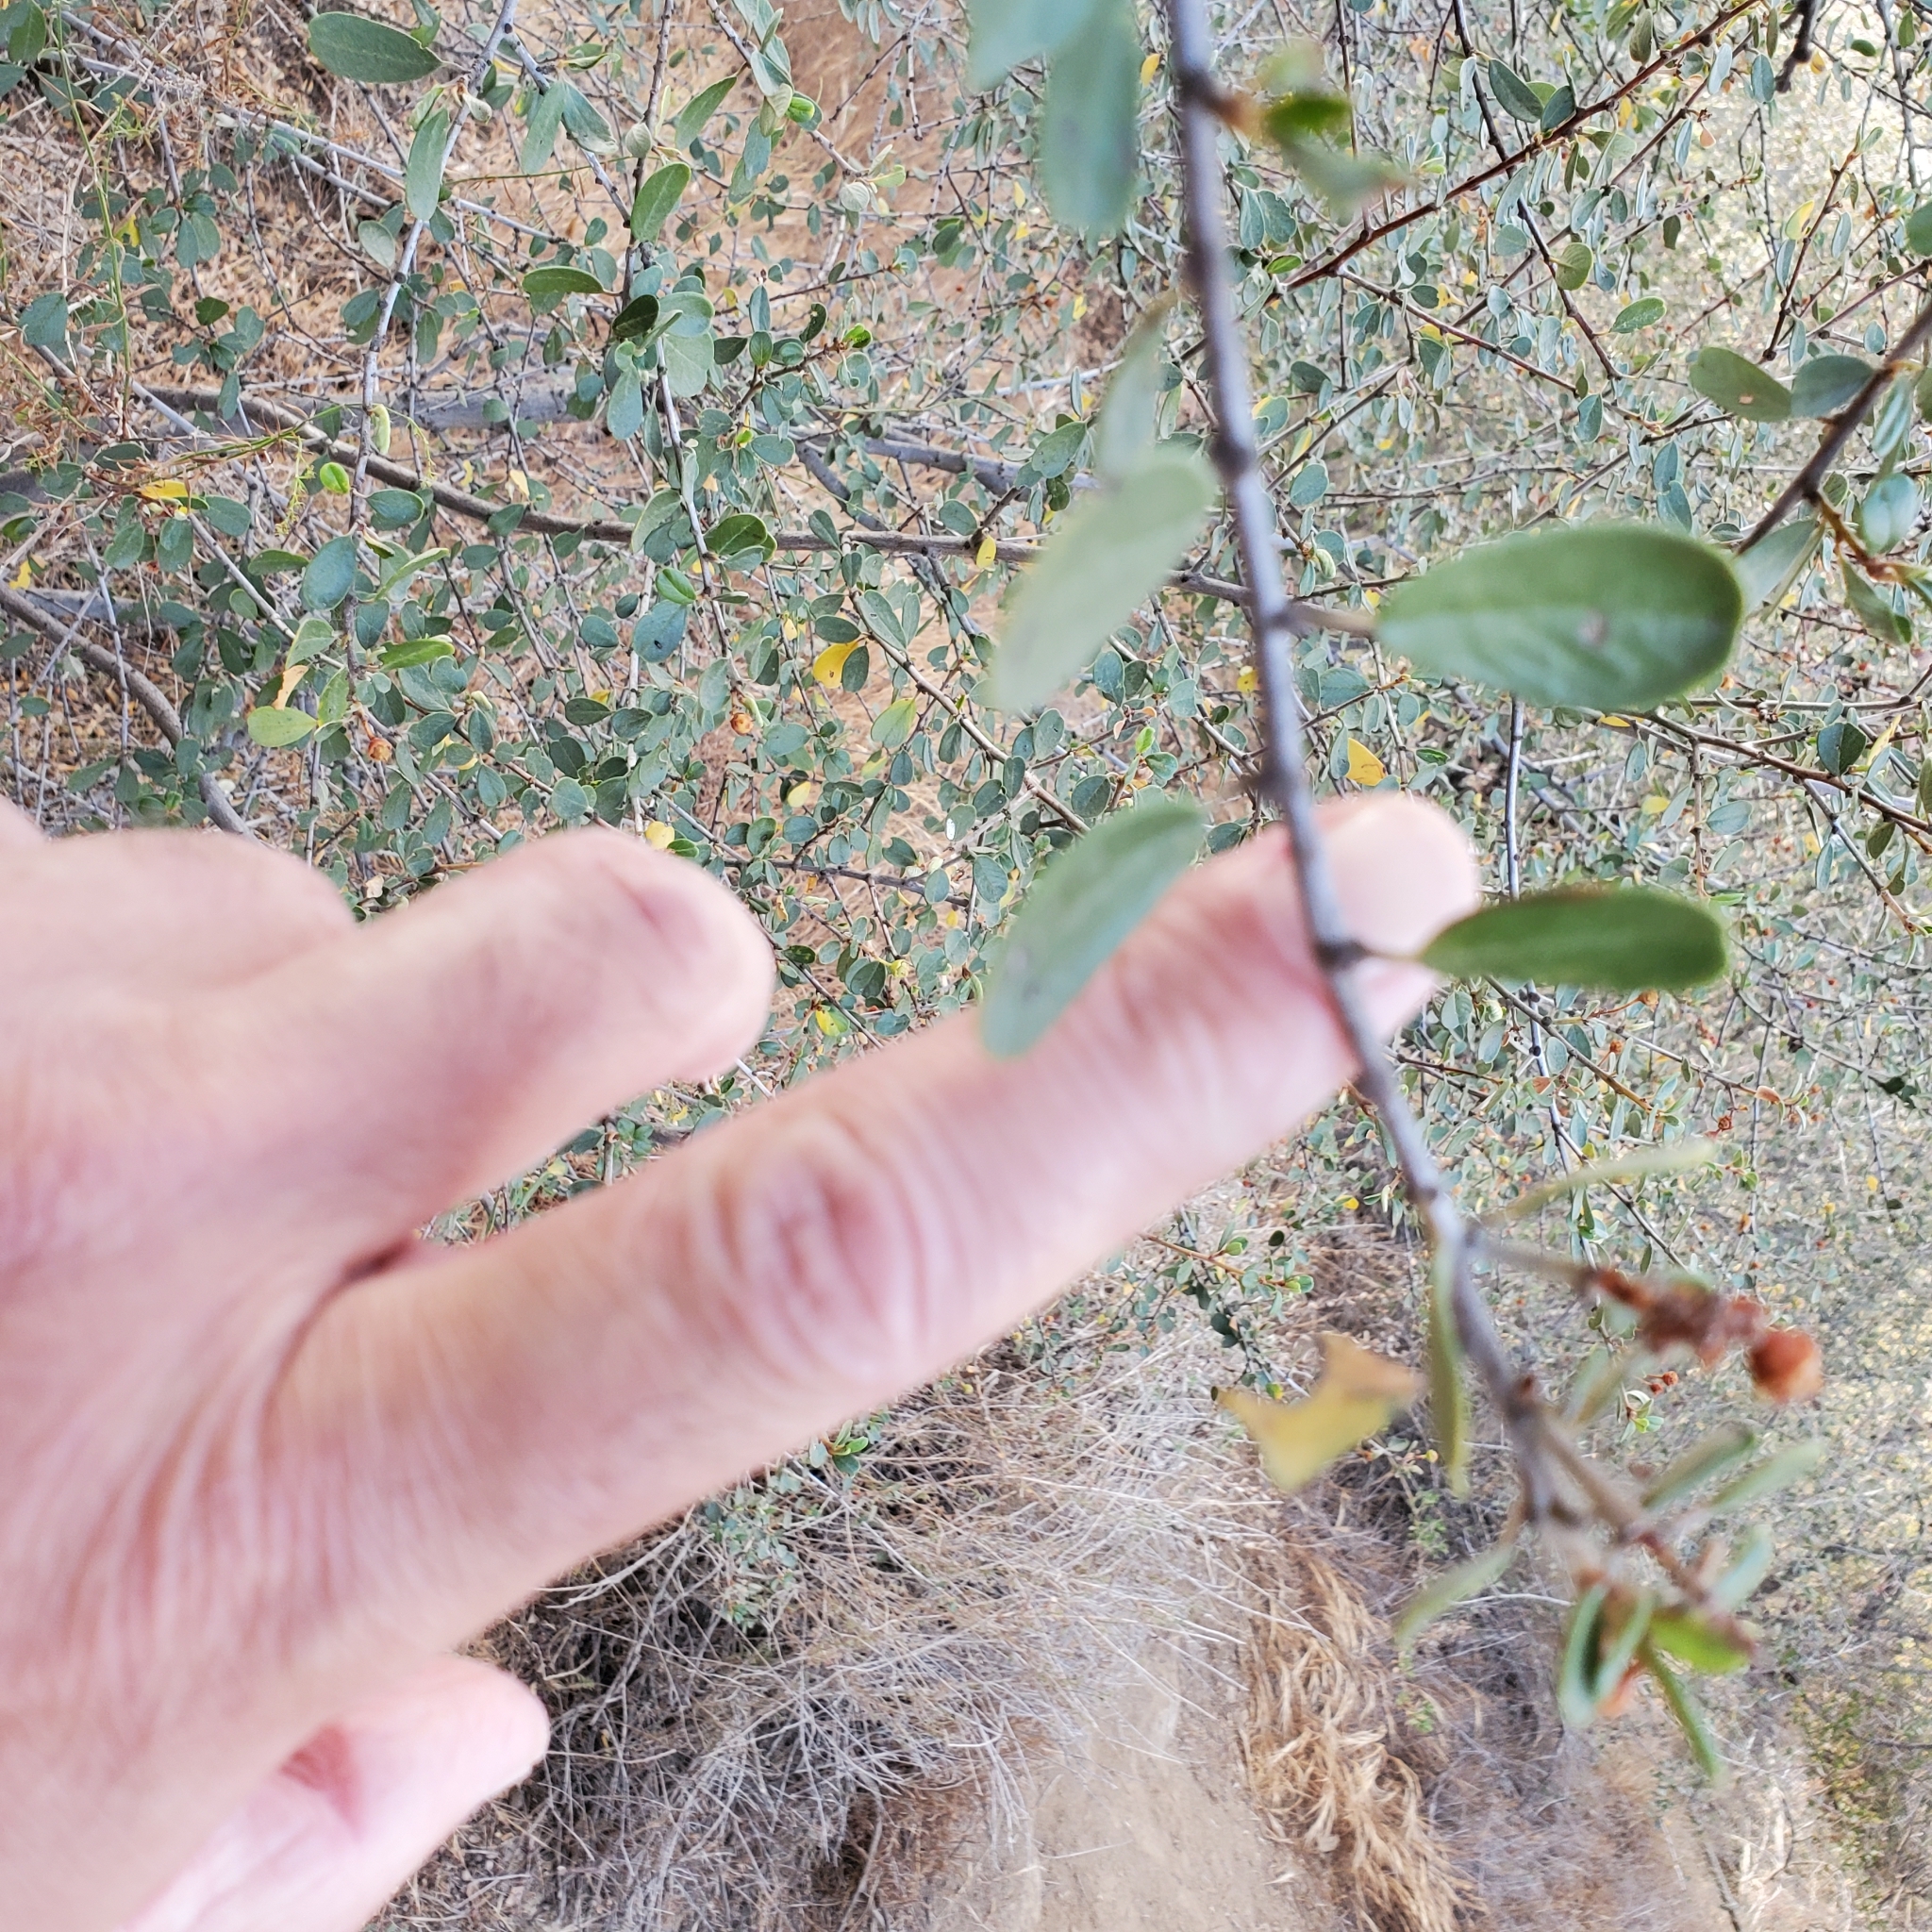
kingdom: Plantae
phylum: Tracheophyta
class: Magnoliopsida
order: Rosales
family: Rhamnaceae
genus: Ceanothus
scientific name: Ceanothus megacarpus
